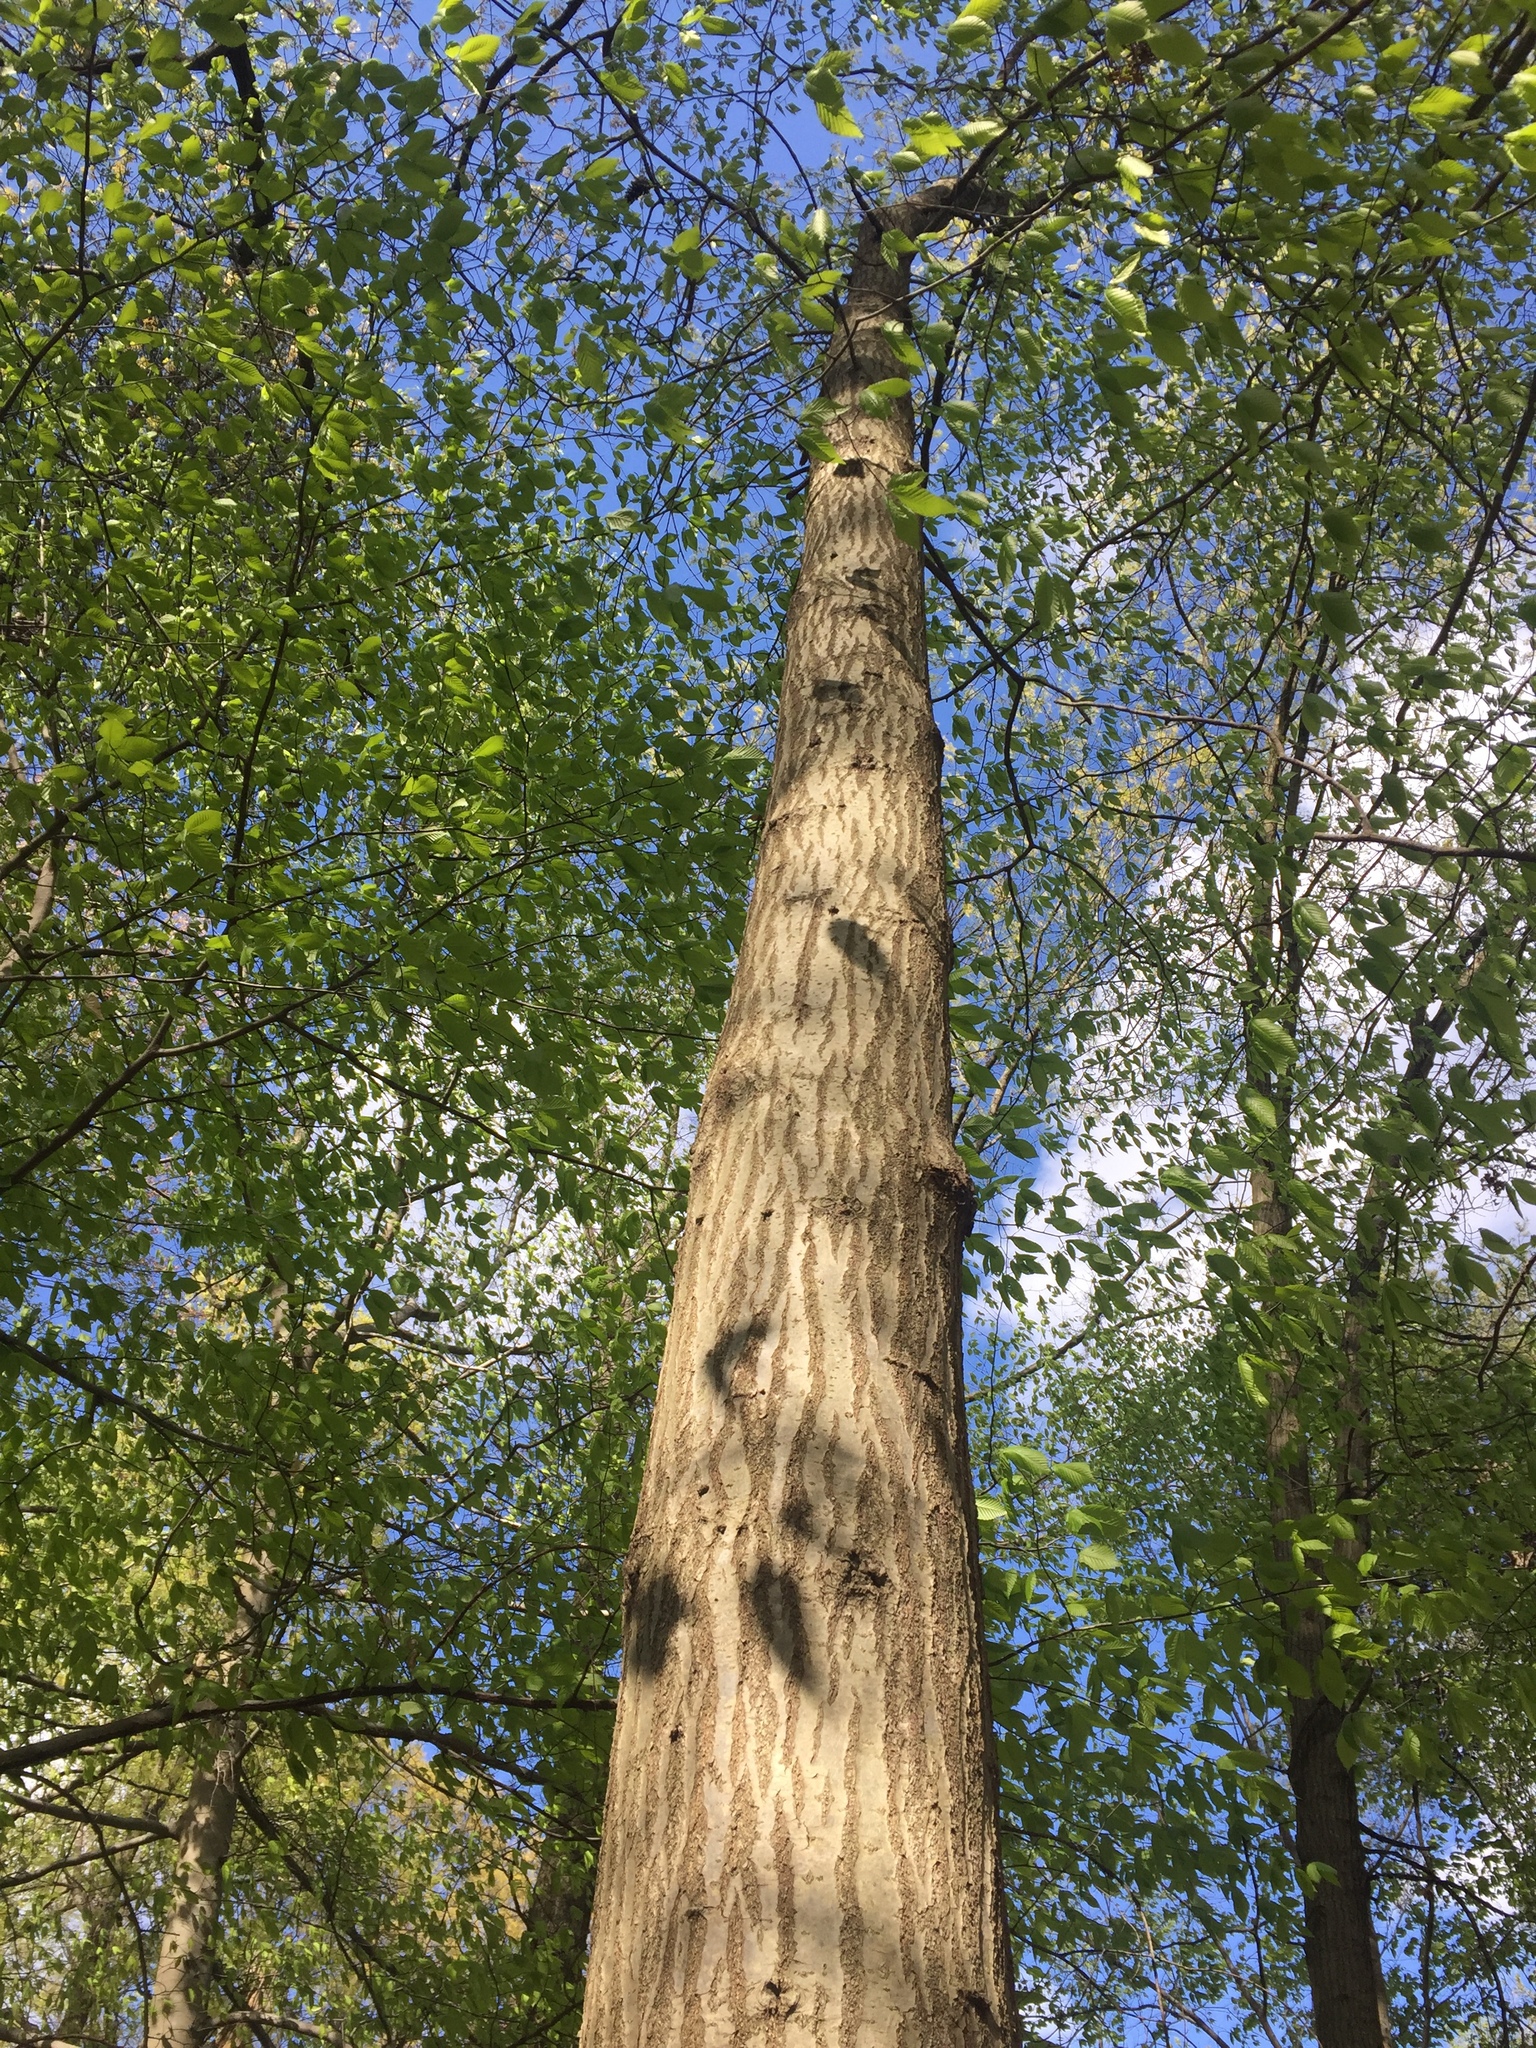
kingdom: Animalia
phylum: Arthropoda
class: Insecta
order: Coleoptera
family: Buprestidae
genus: Agrilus
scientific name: Agrilus planipennis
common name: Emerald ash borer
